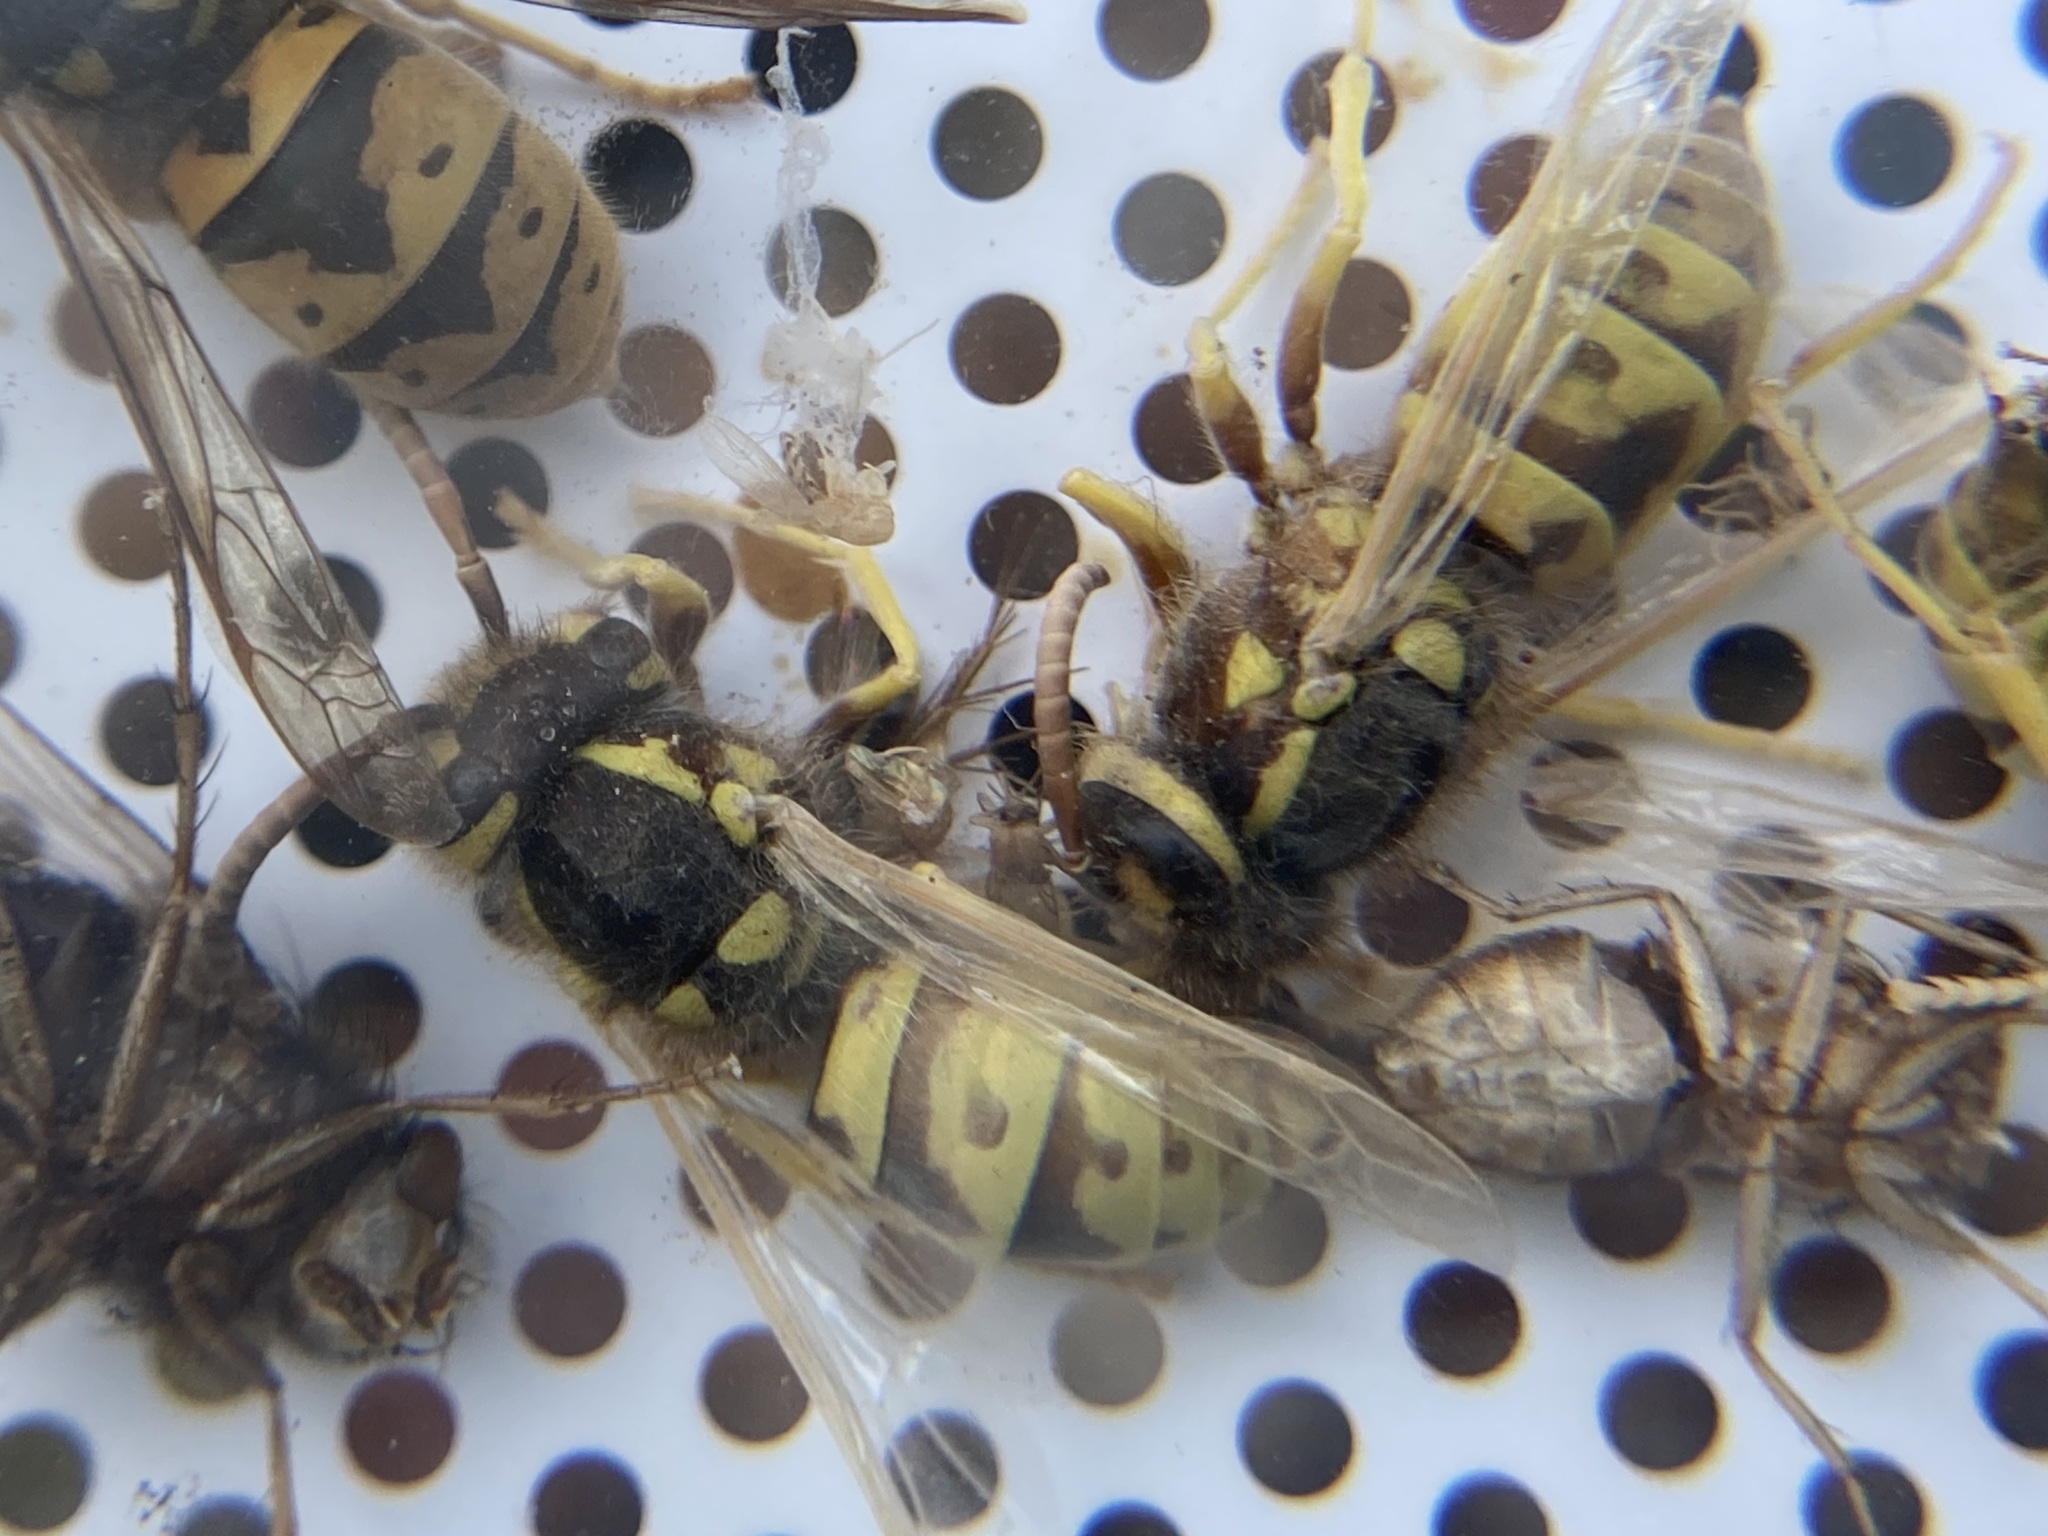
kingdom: Animalia
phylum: Arthropoda
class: Insecta
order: Hymenoptera
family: Vespidae
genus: Vespula
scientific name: Vespula germanica
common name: German wasp
